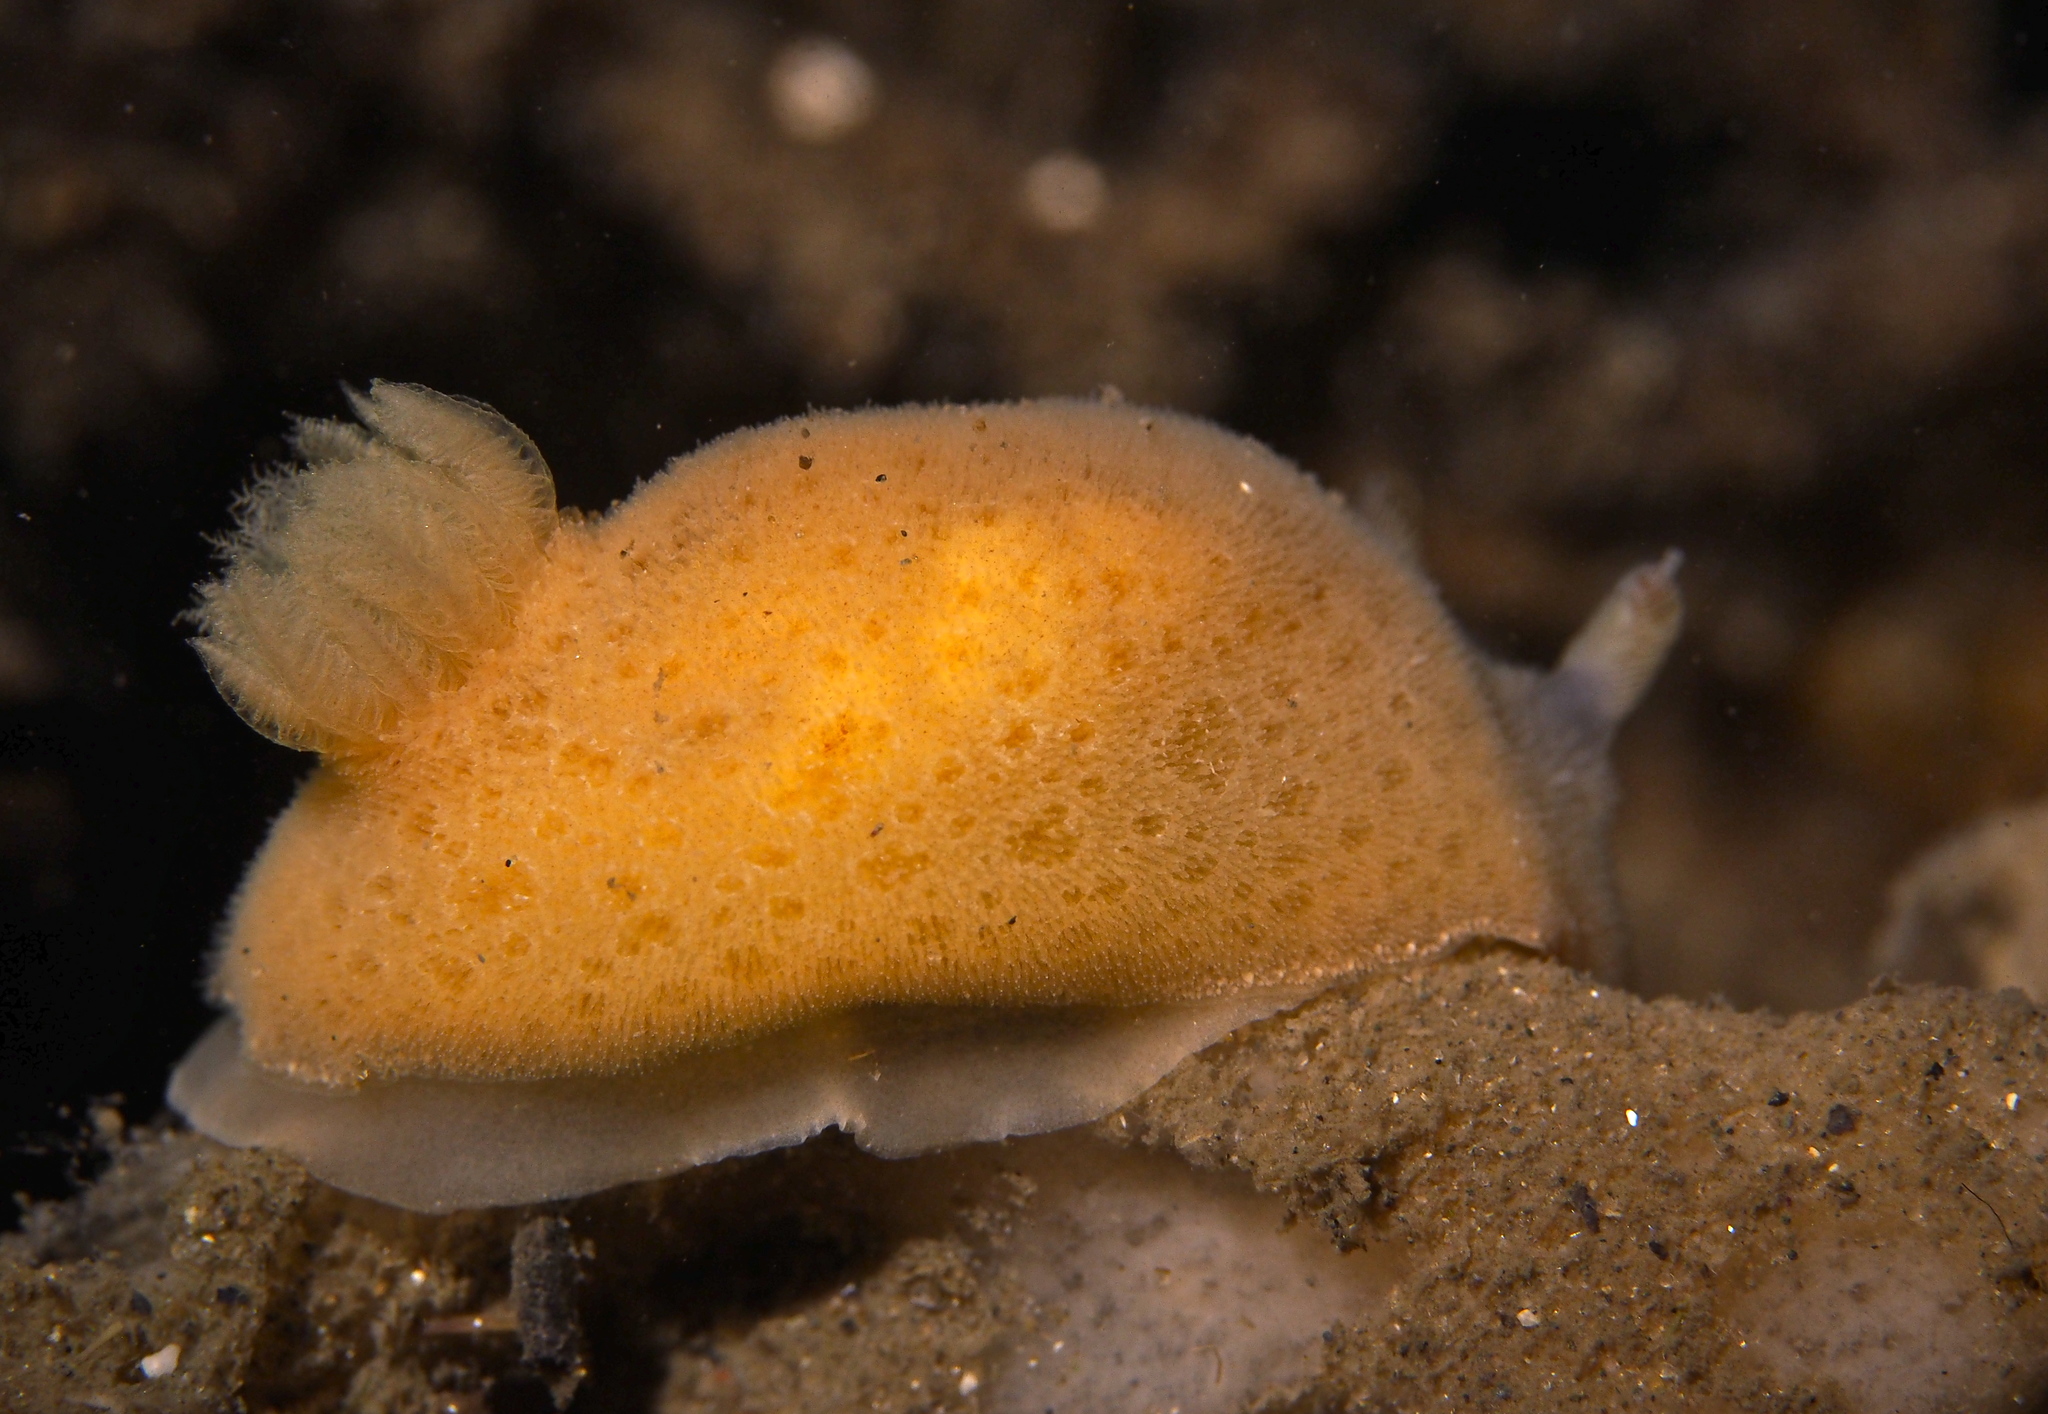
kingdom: Animalia
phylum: Mollusca
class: Gastropoda
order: Nudibranchia
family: Discodorididae
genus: Jorunna
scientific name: Jorunna tomentosa
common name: Grey sea slug
